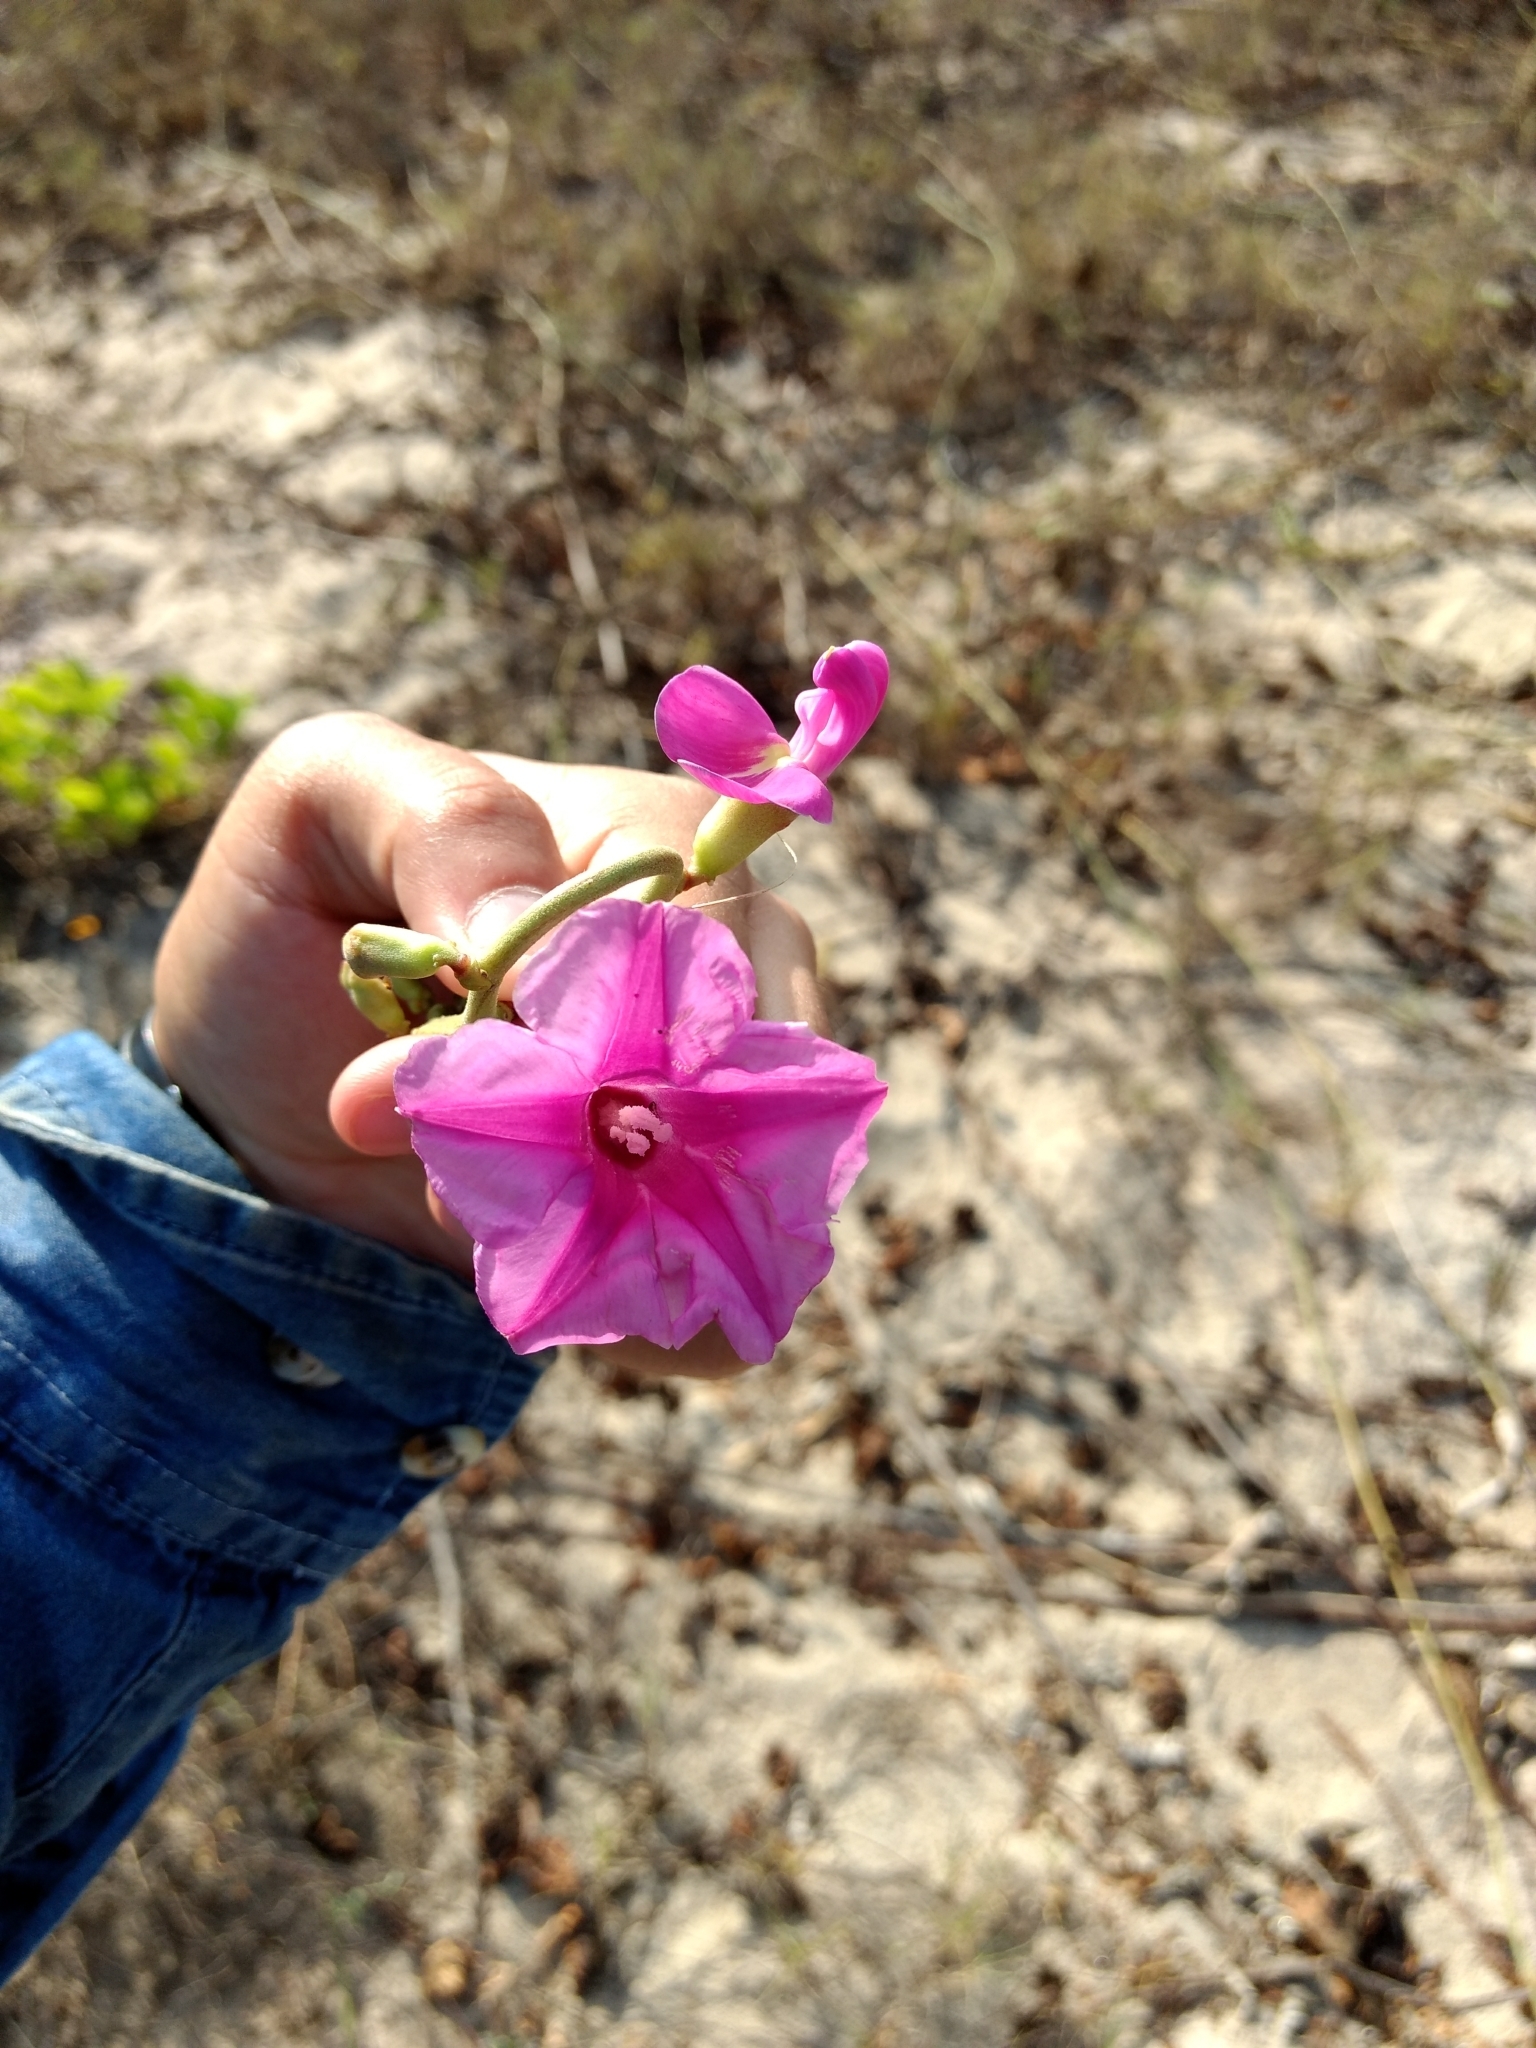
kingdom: Plantae
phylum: Tracheophyta
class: Magnoliopsida
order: Solanales
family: Convolvulaceae
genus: Ipomoea
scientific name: Ipomoea pes-caprae
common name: Beach morning glory
